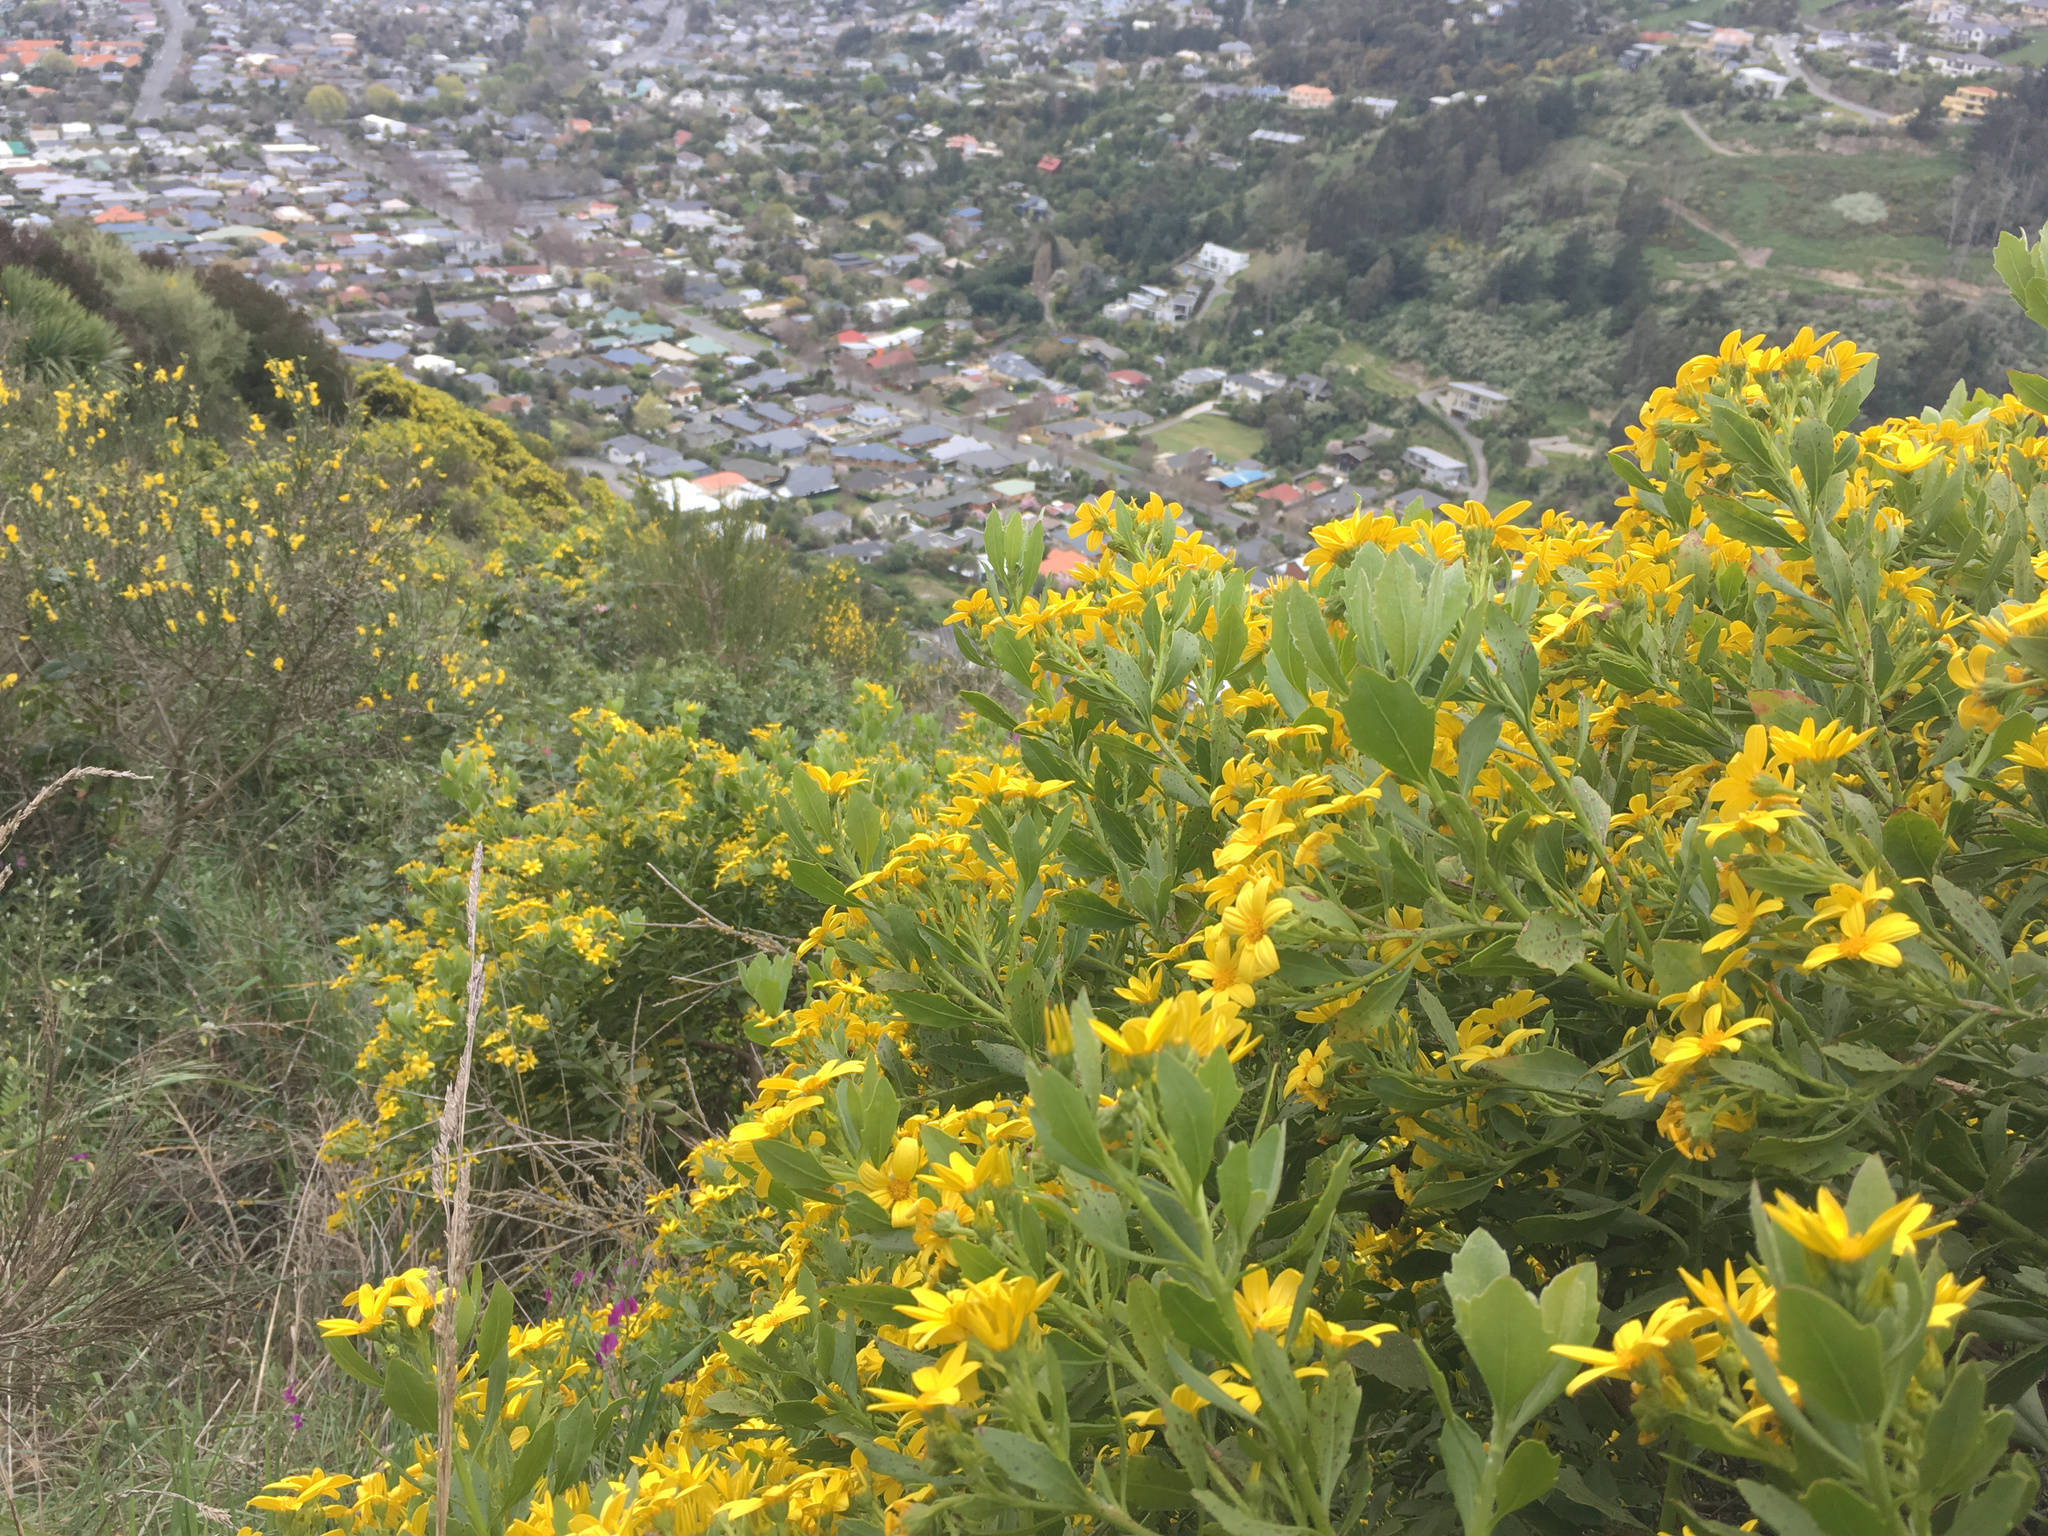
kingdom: Plantae
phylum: Tracheophyta
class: Magnoliopsida
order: Asterales
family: Asteraceae
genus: Osteospermum
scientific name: Osteospermum moniliferum
